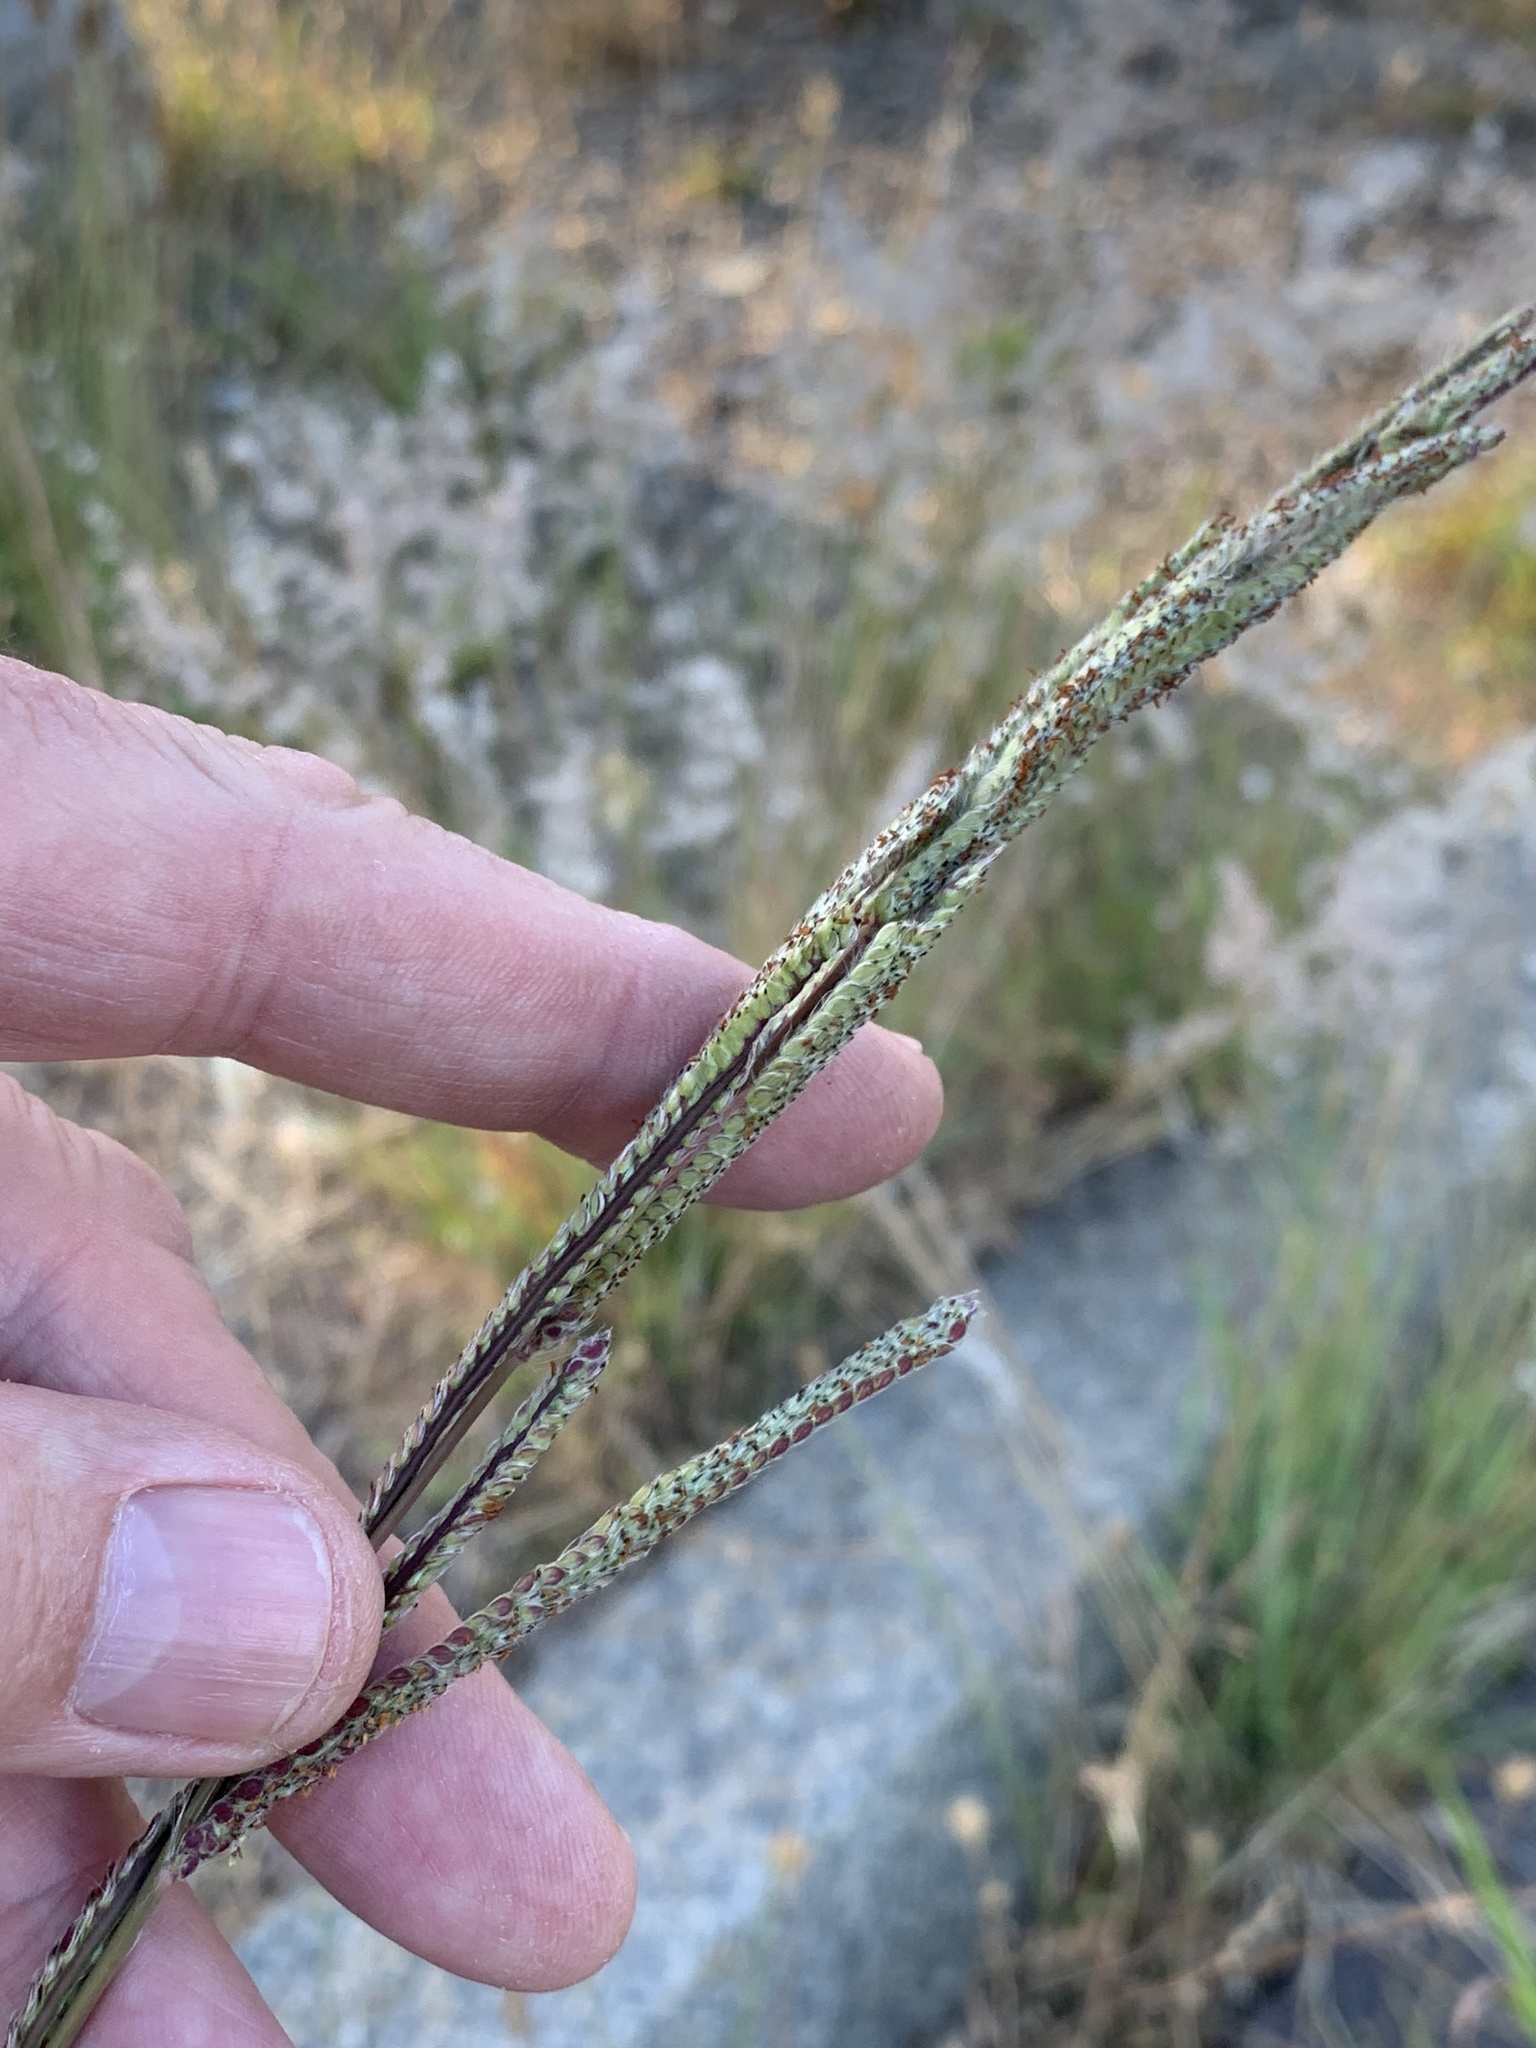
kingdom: Plantae
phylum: Tracheophyta
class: Liliopsida
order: Poales
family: Poaceae
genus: Paspalum
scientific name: Paspalum urvillei
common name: Vasey's grass
